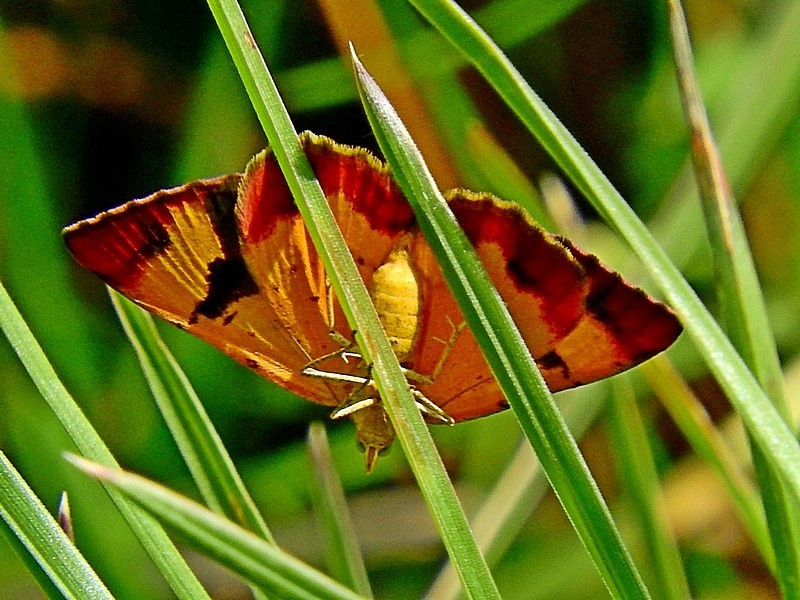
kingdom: Animalia
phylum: Arthropoda
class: Insecta
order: Lepidoptera
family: Geometridae
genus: Chrysolarentia
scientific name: Chrysolarentia perornata
